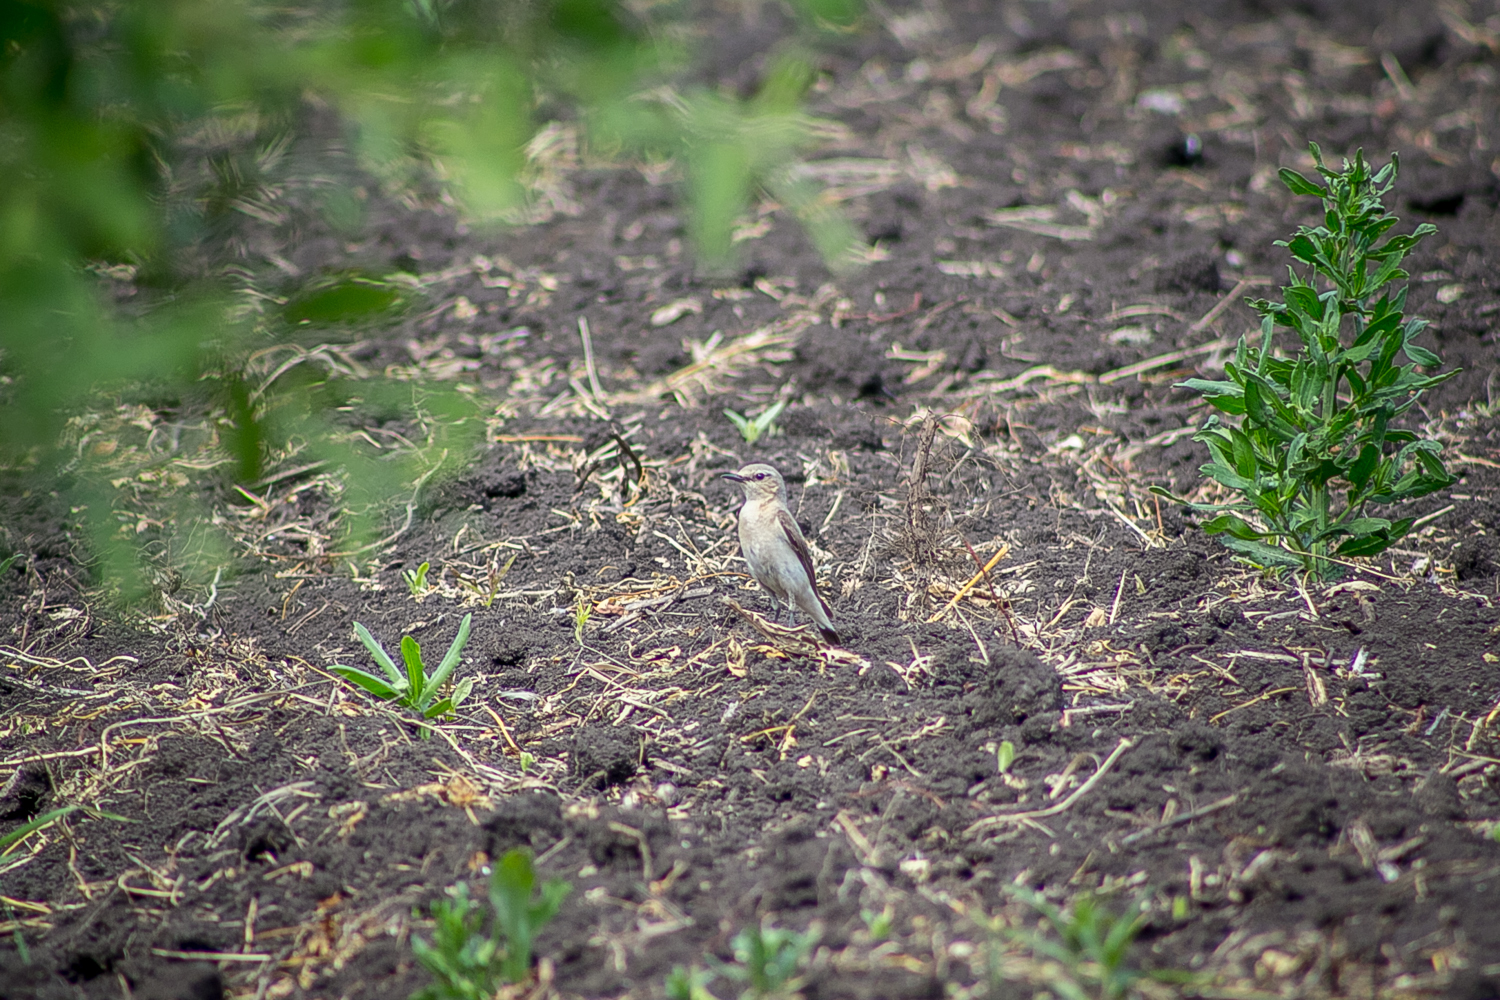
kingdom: Animalia
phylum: Chordata
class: Aves
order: Passeriformes
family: Muscicapidae
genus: Oenanthe
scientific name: Oenanthe oenanthe
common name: Northern wheatear
